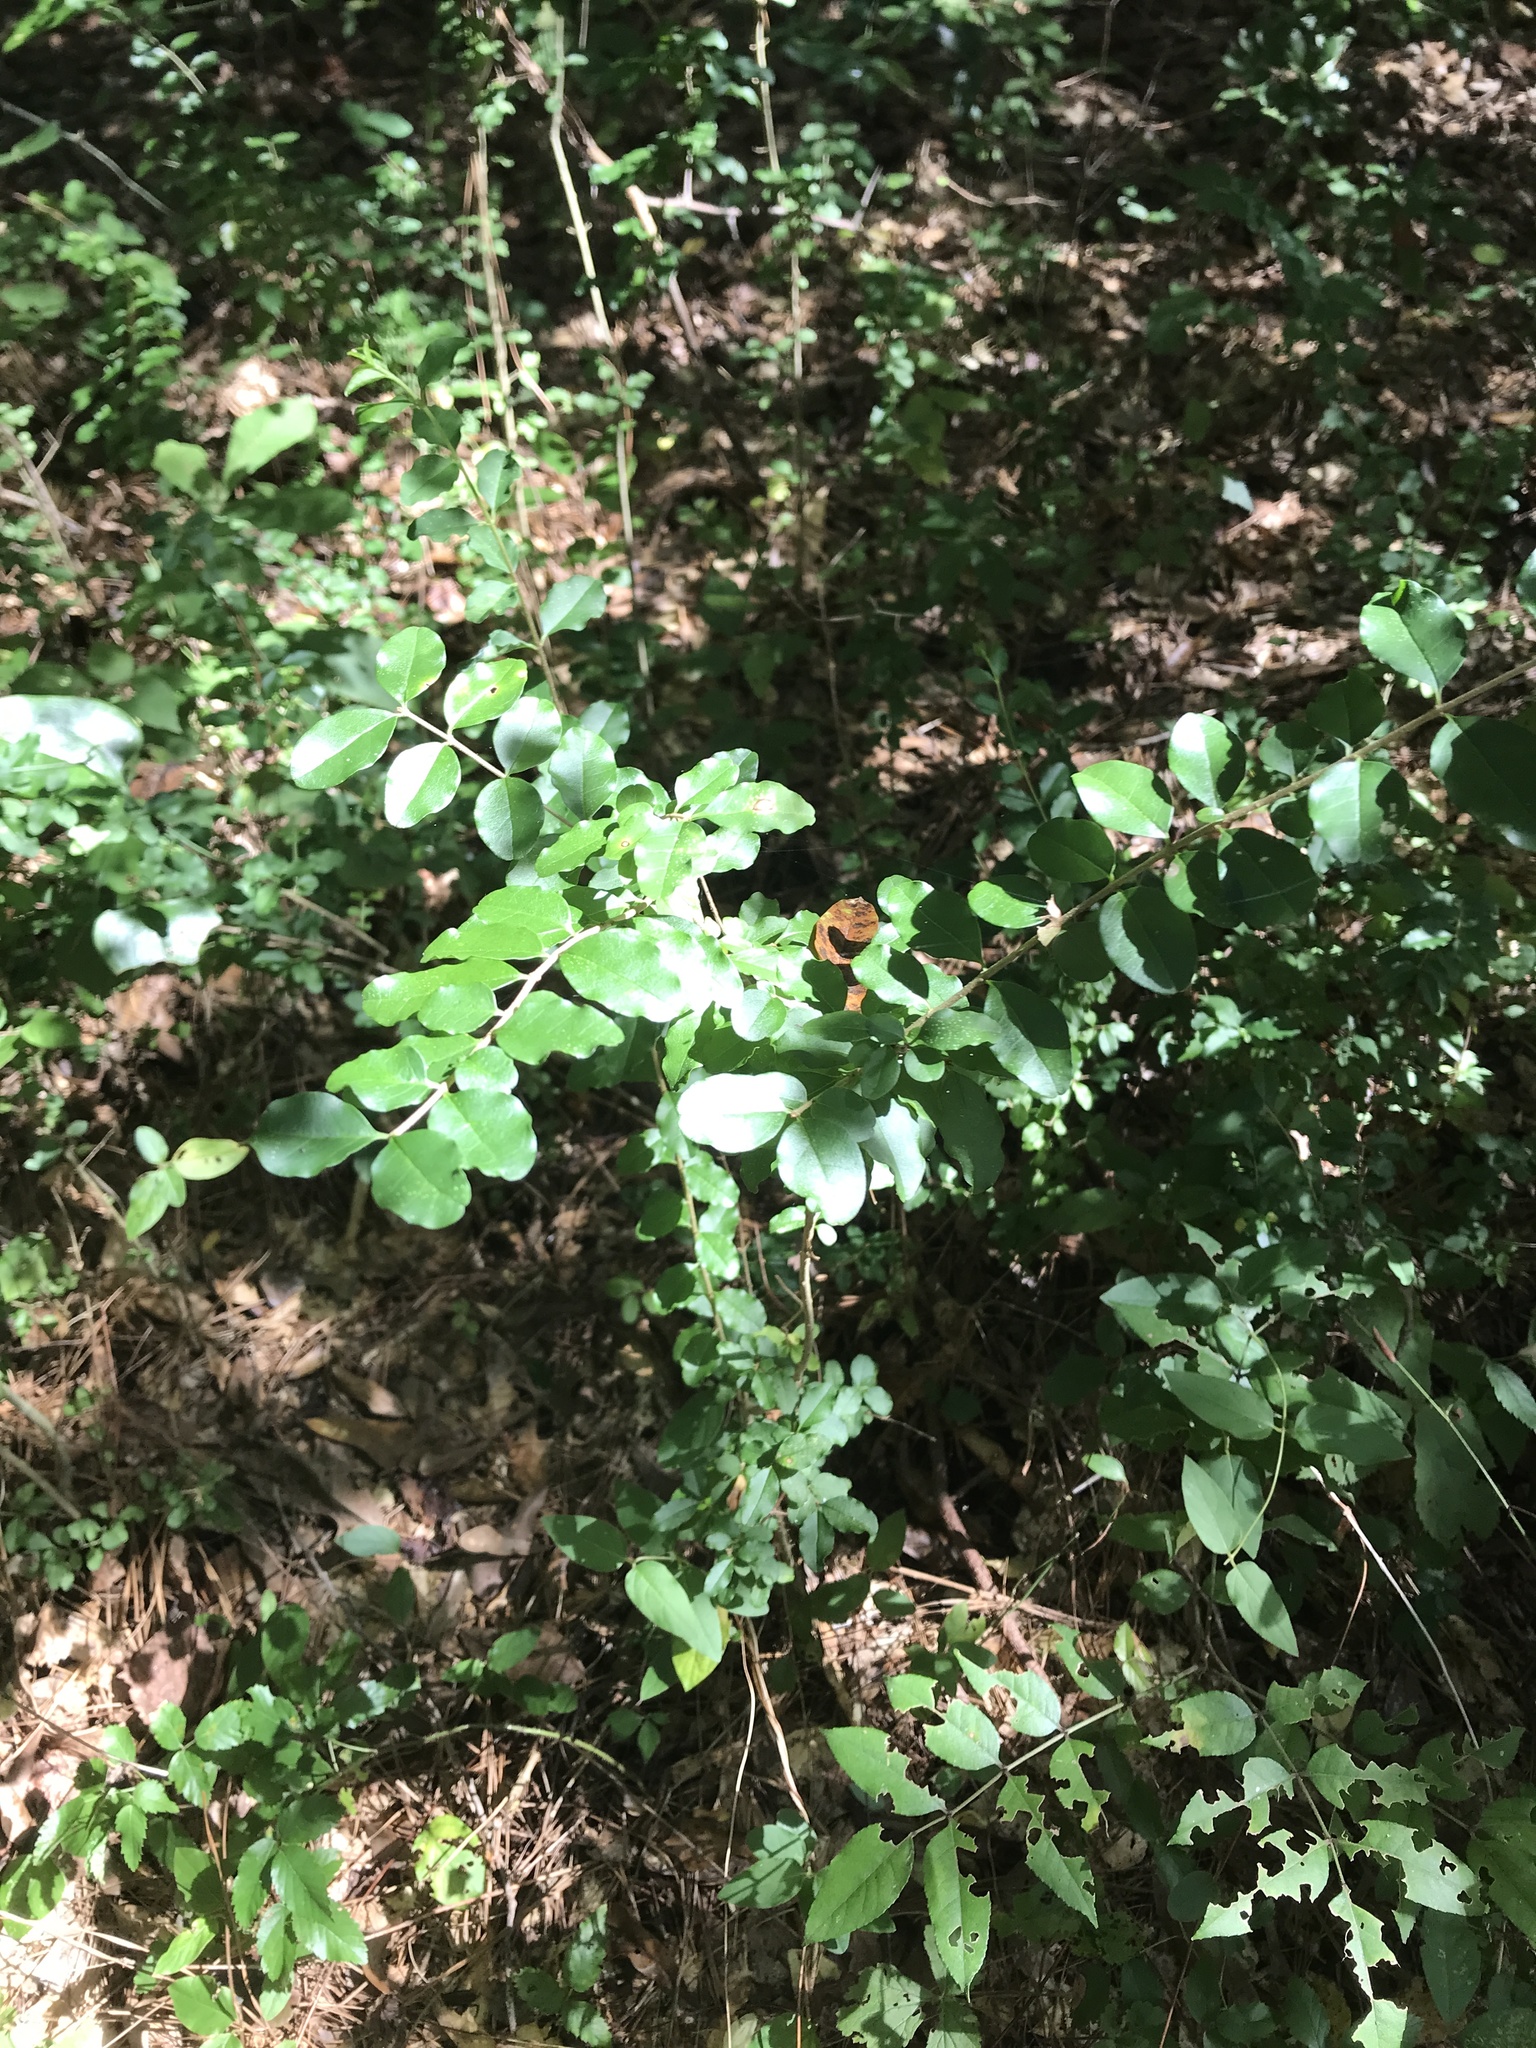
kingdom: Plantae
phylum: Tracheophyta
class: Magnoliopsida
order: Lamiales
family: Oleaceae
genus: Ligustrum
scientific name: Ligustrum sinense
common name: Chinese privet
